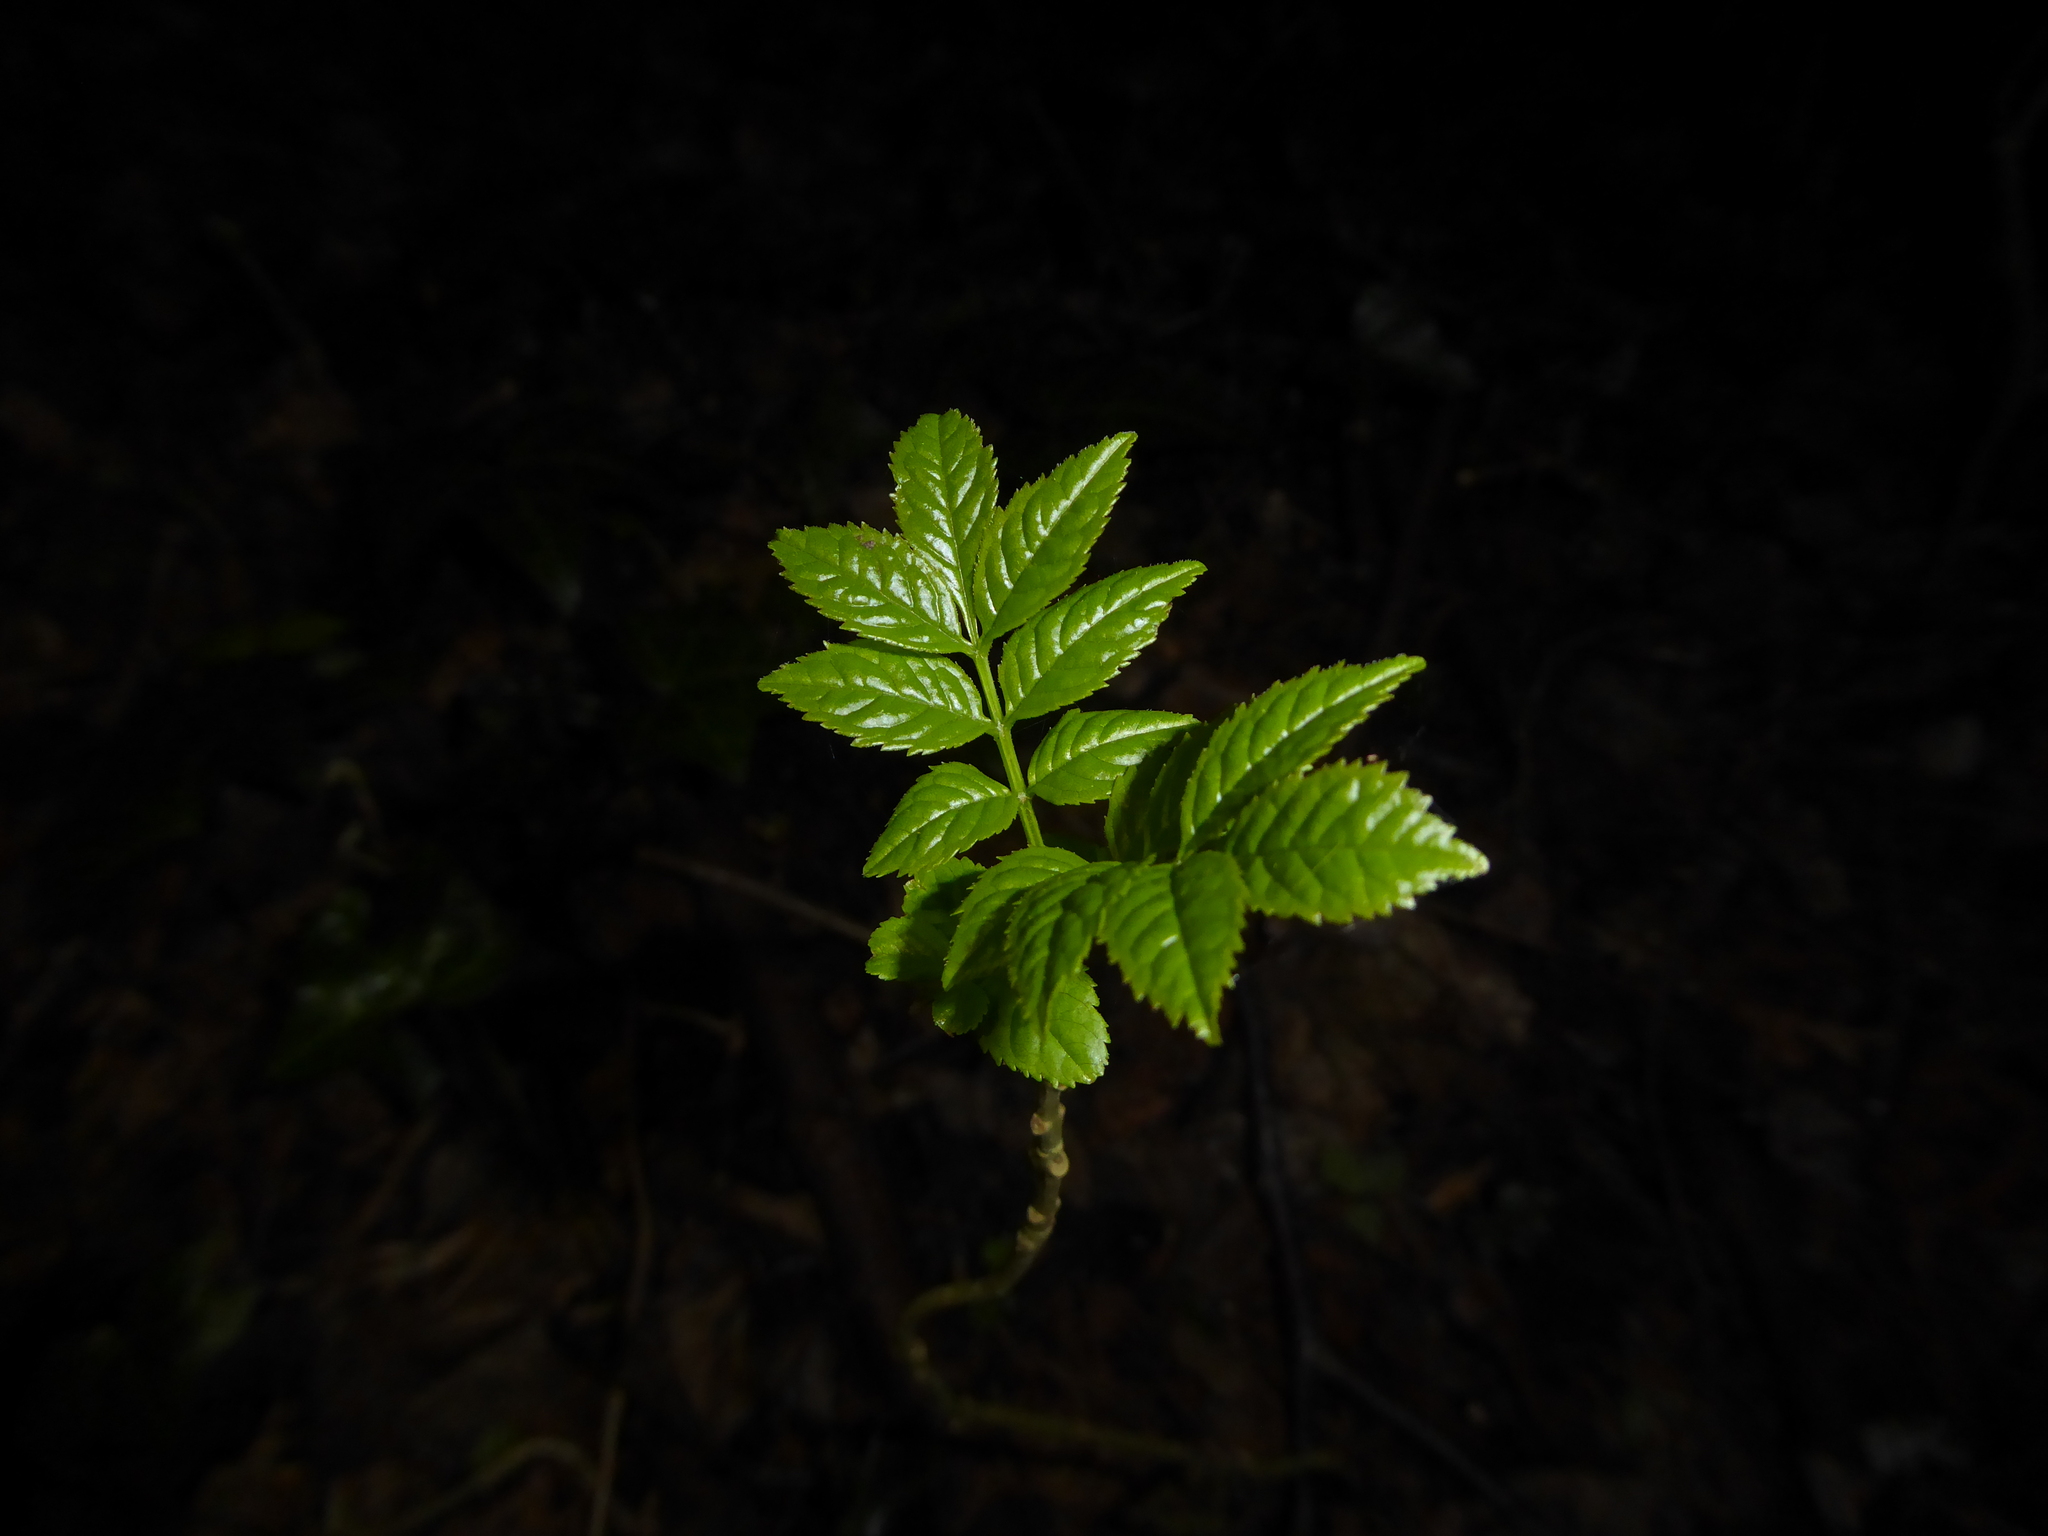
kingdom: Plantae
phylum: Tracheophyta
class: Magnoliopsida
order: Lamiales
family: Oleaceae
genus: Fraxinus
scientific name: Fraxinus excelsior
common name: European ash
